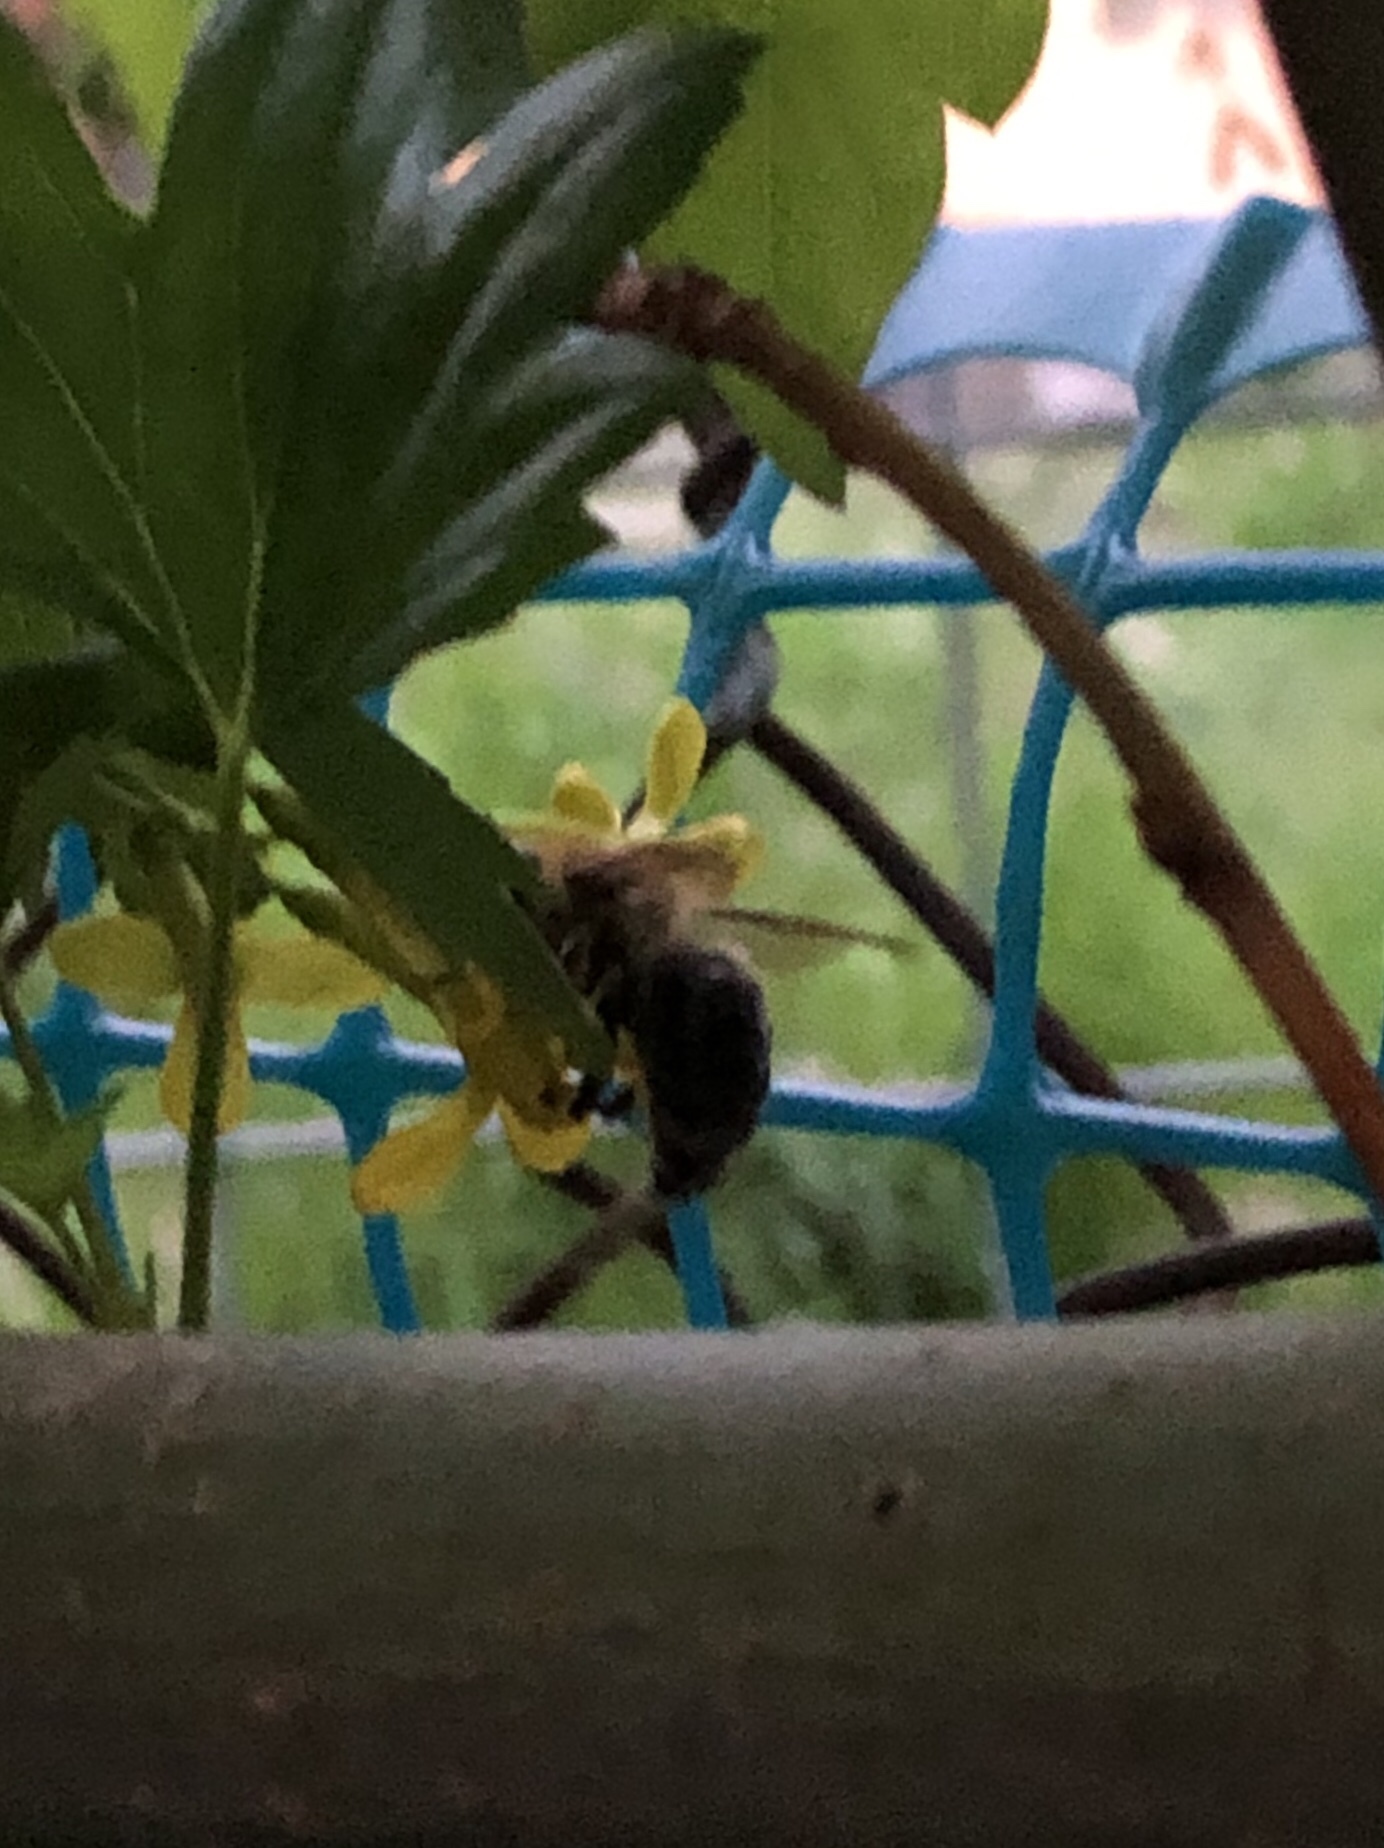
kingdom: Animalia
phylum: Arthropoda
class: Insecta
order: Hymenoptera
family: Apidae
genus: Apis
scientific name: Apis mellifera
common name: Honey bee
